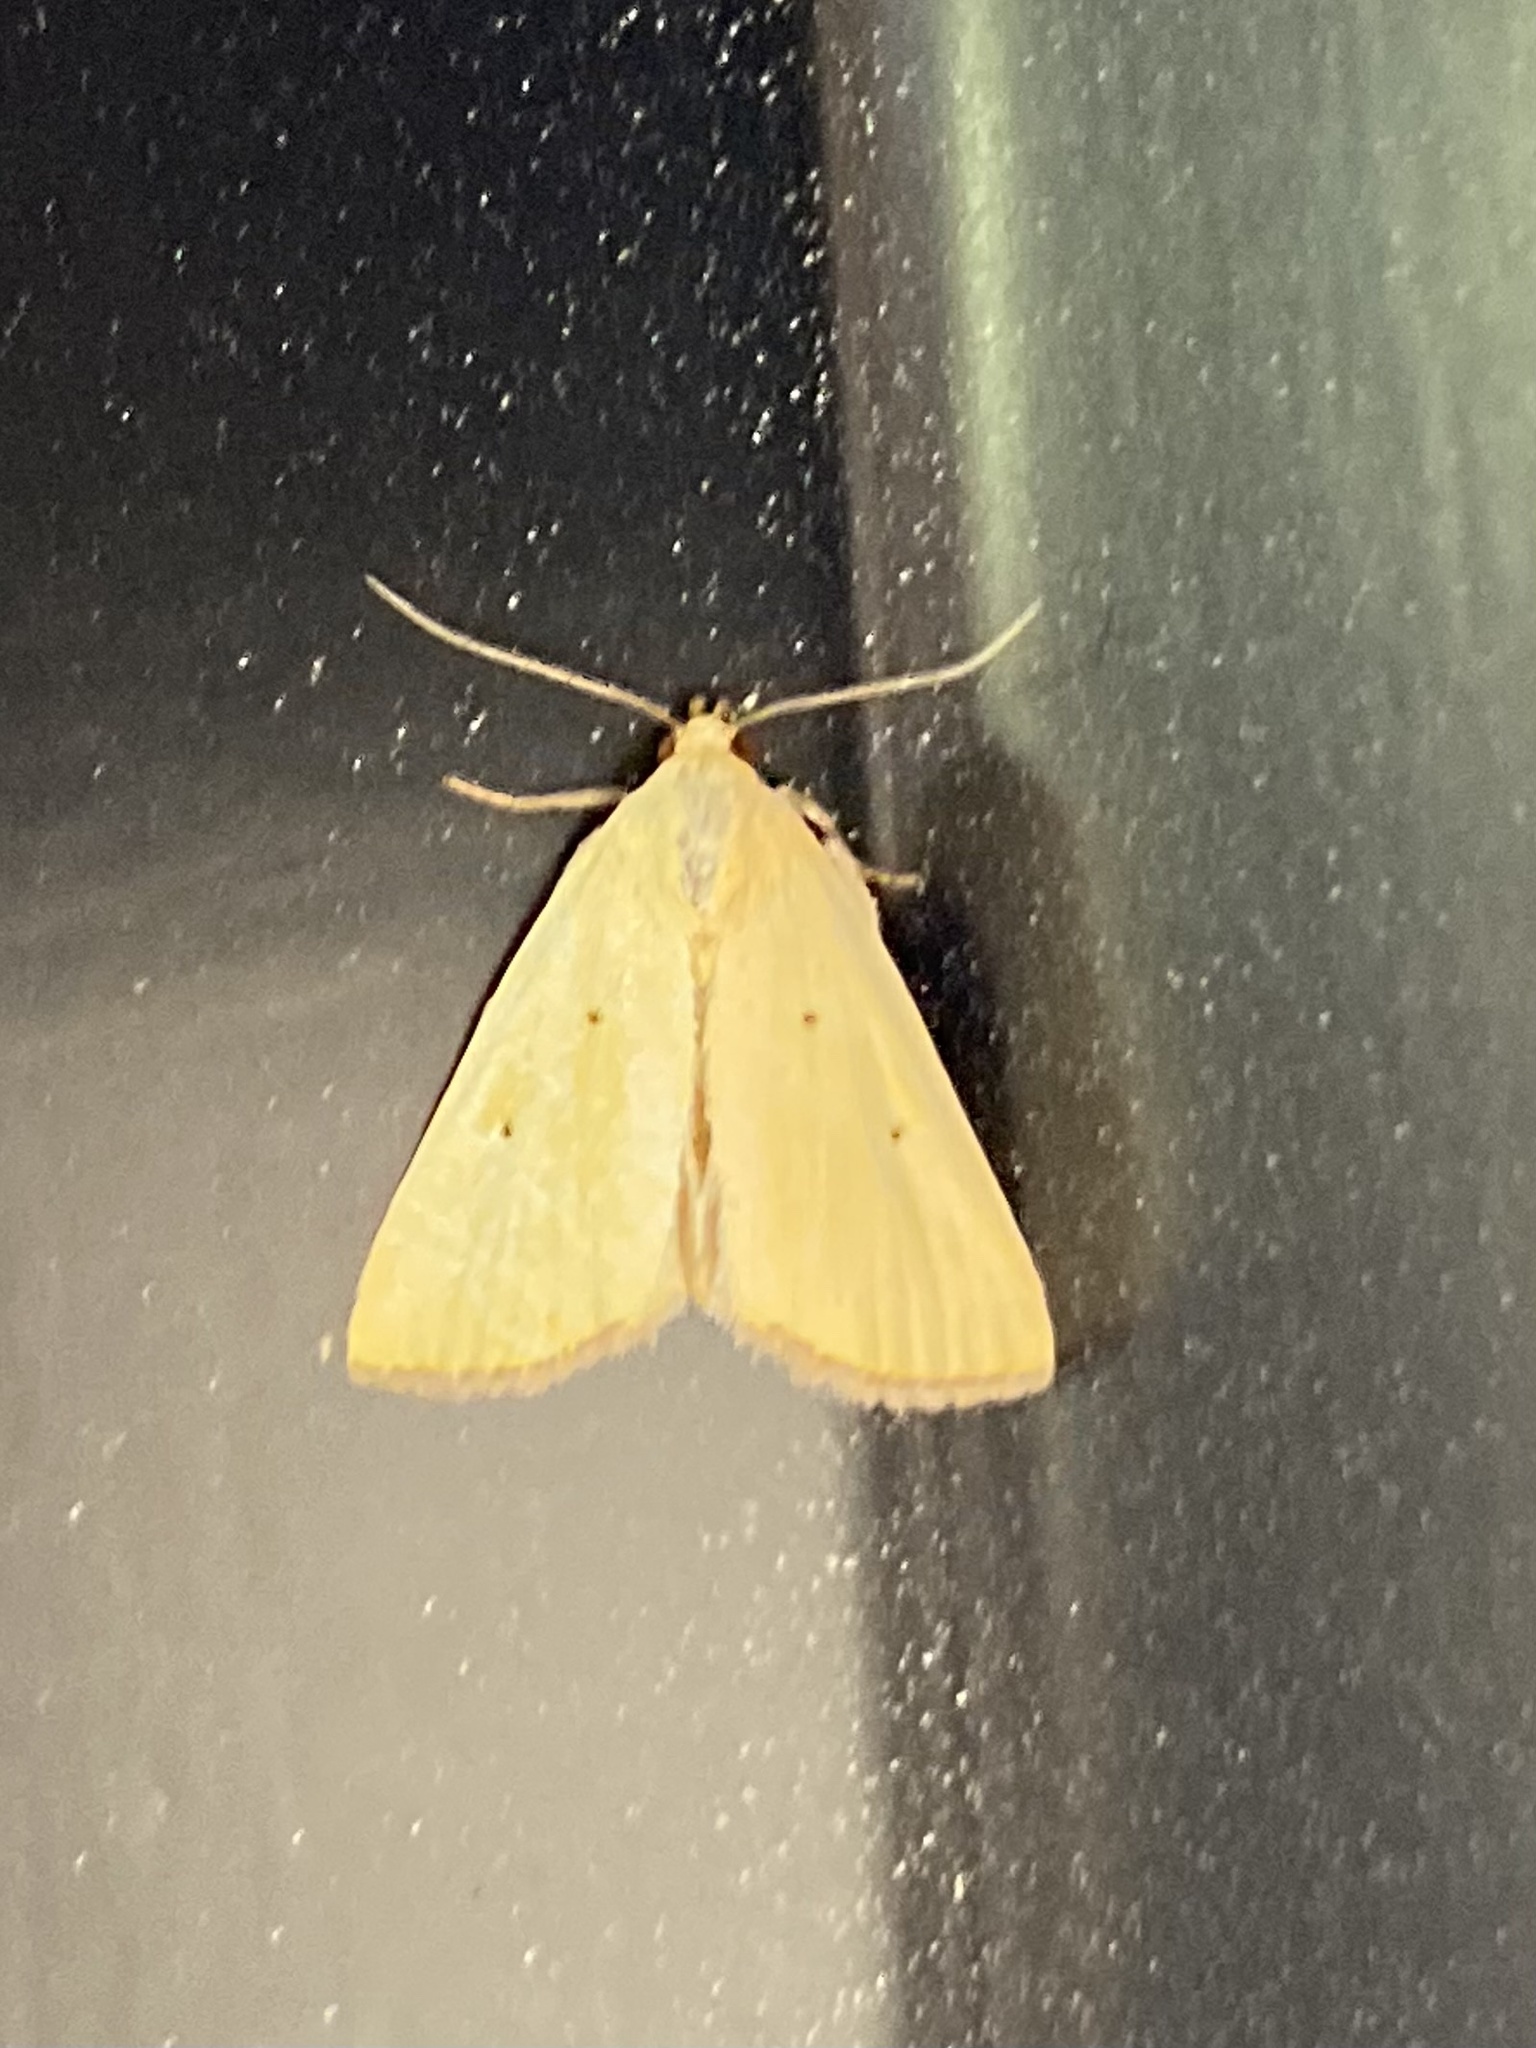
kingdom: Animalia
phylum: Arthropoda
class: Insecta
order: Lepidoptera
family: Noctuidae
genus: Marimatha
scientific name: Marimatha nigrofimbria
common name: Black-bordered lemon moth
